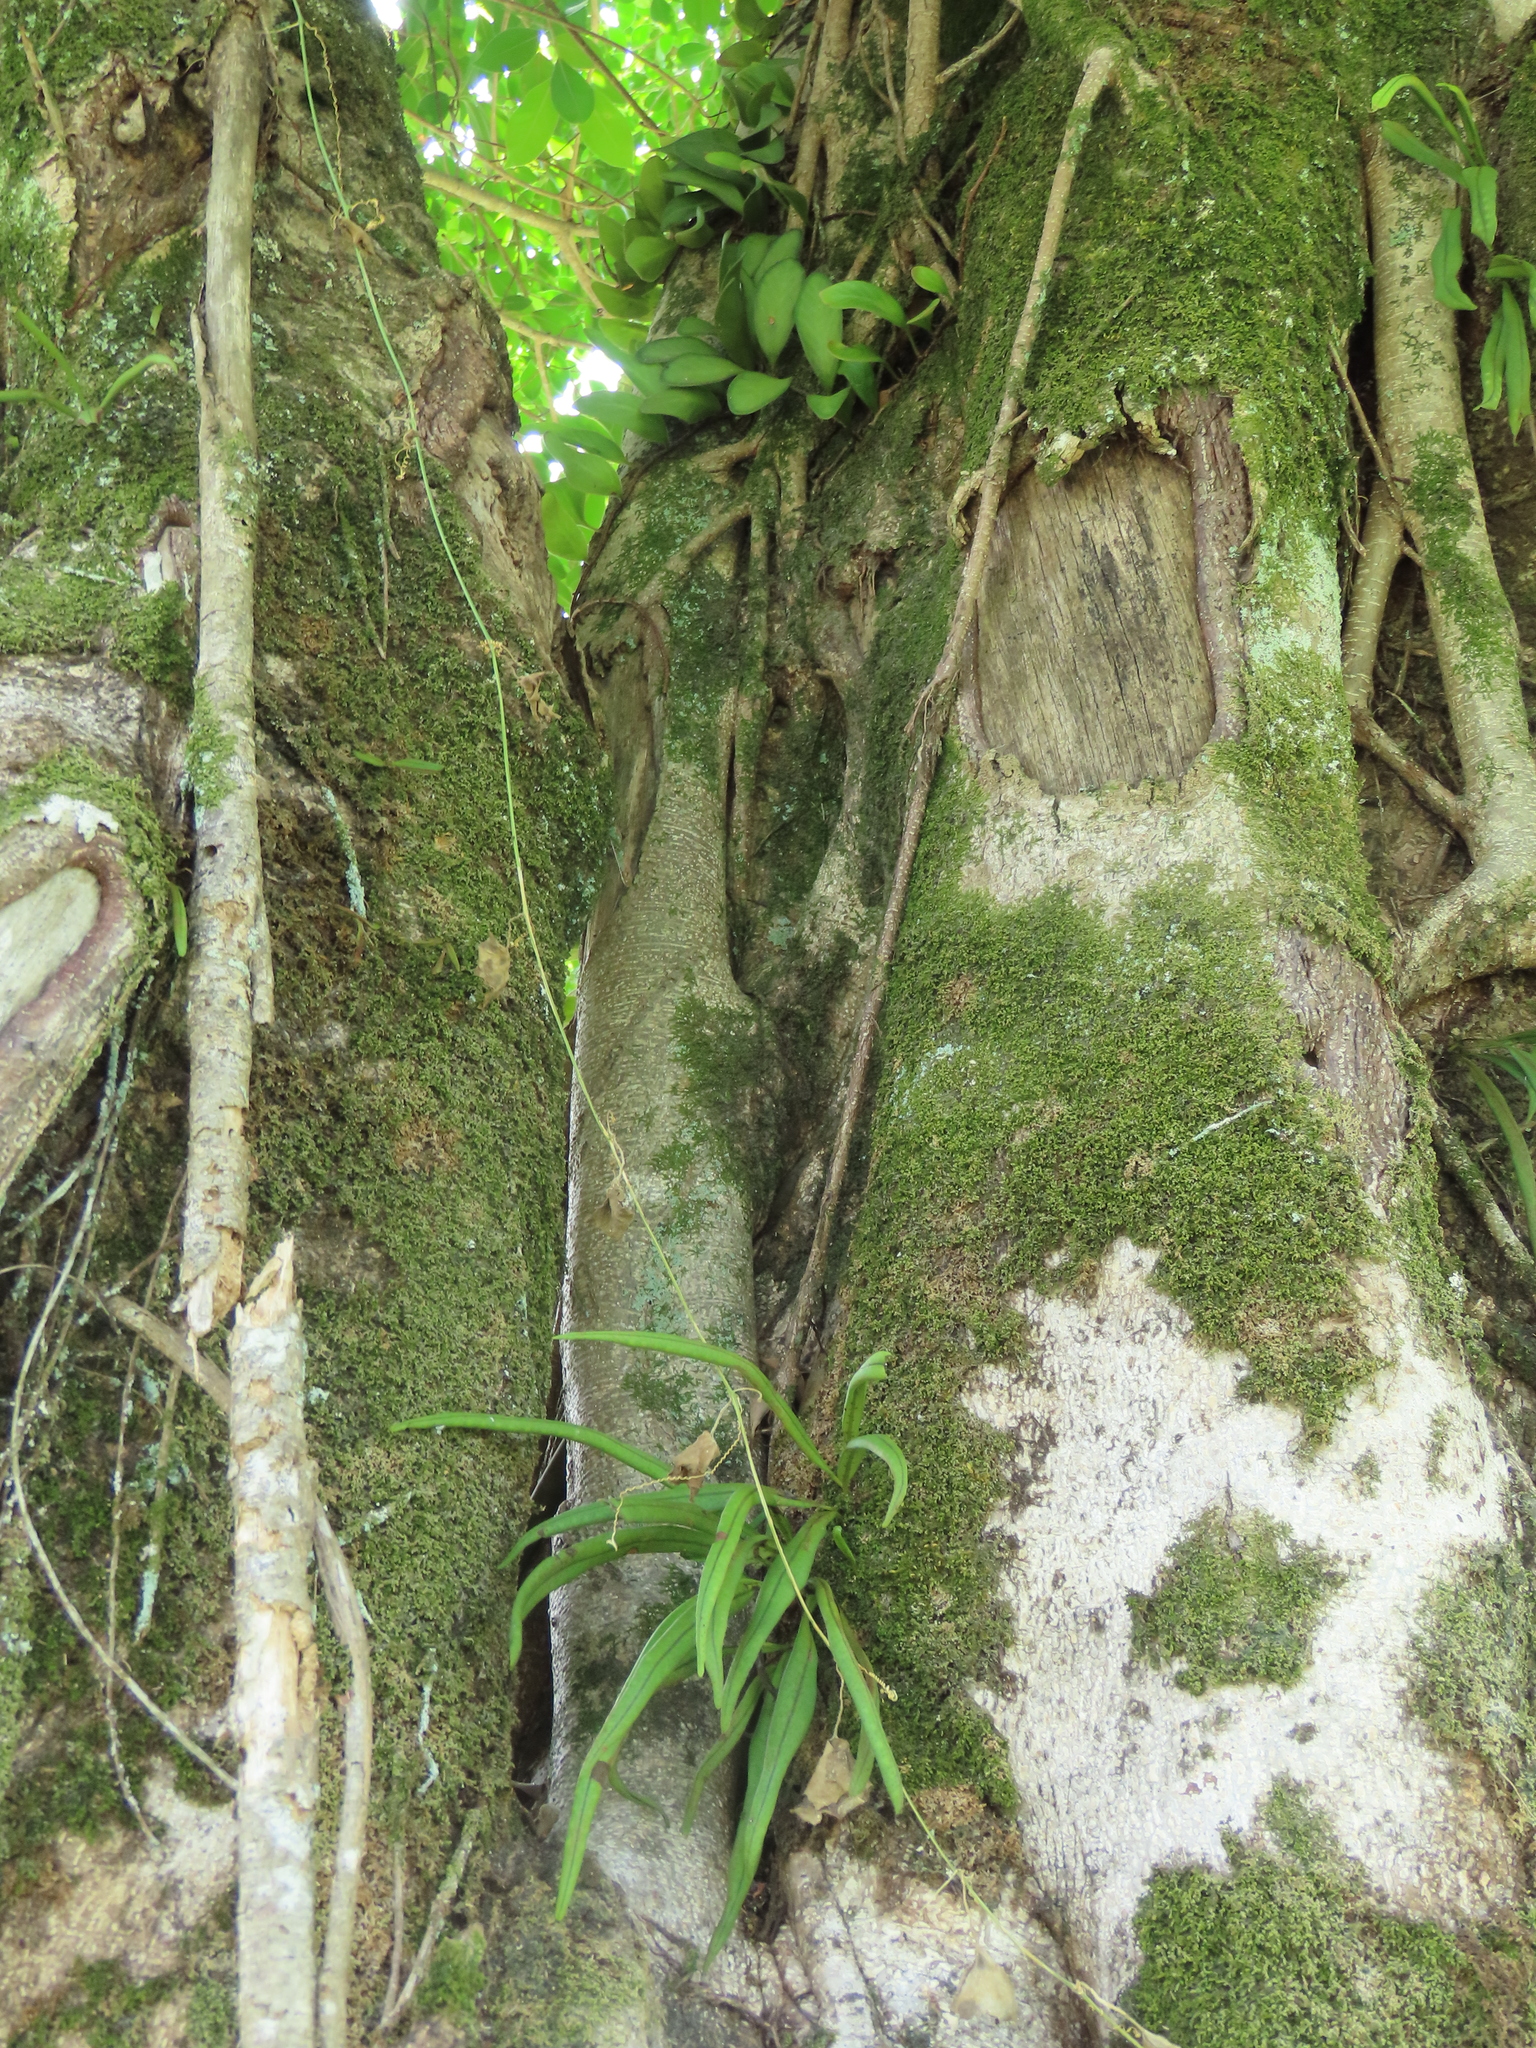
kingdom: Plantae
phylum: Tracheophyta
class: Polypodiopsida
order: Polypodiales
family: Polypodiaceae
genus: Lepisorus
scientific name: Lepisorus thunbergianus
